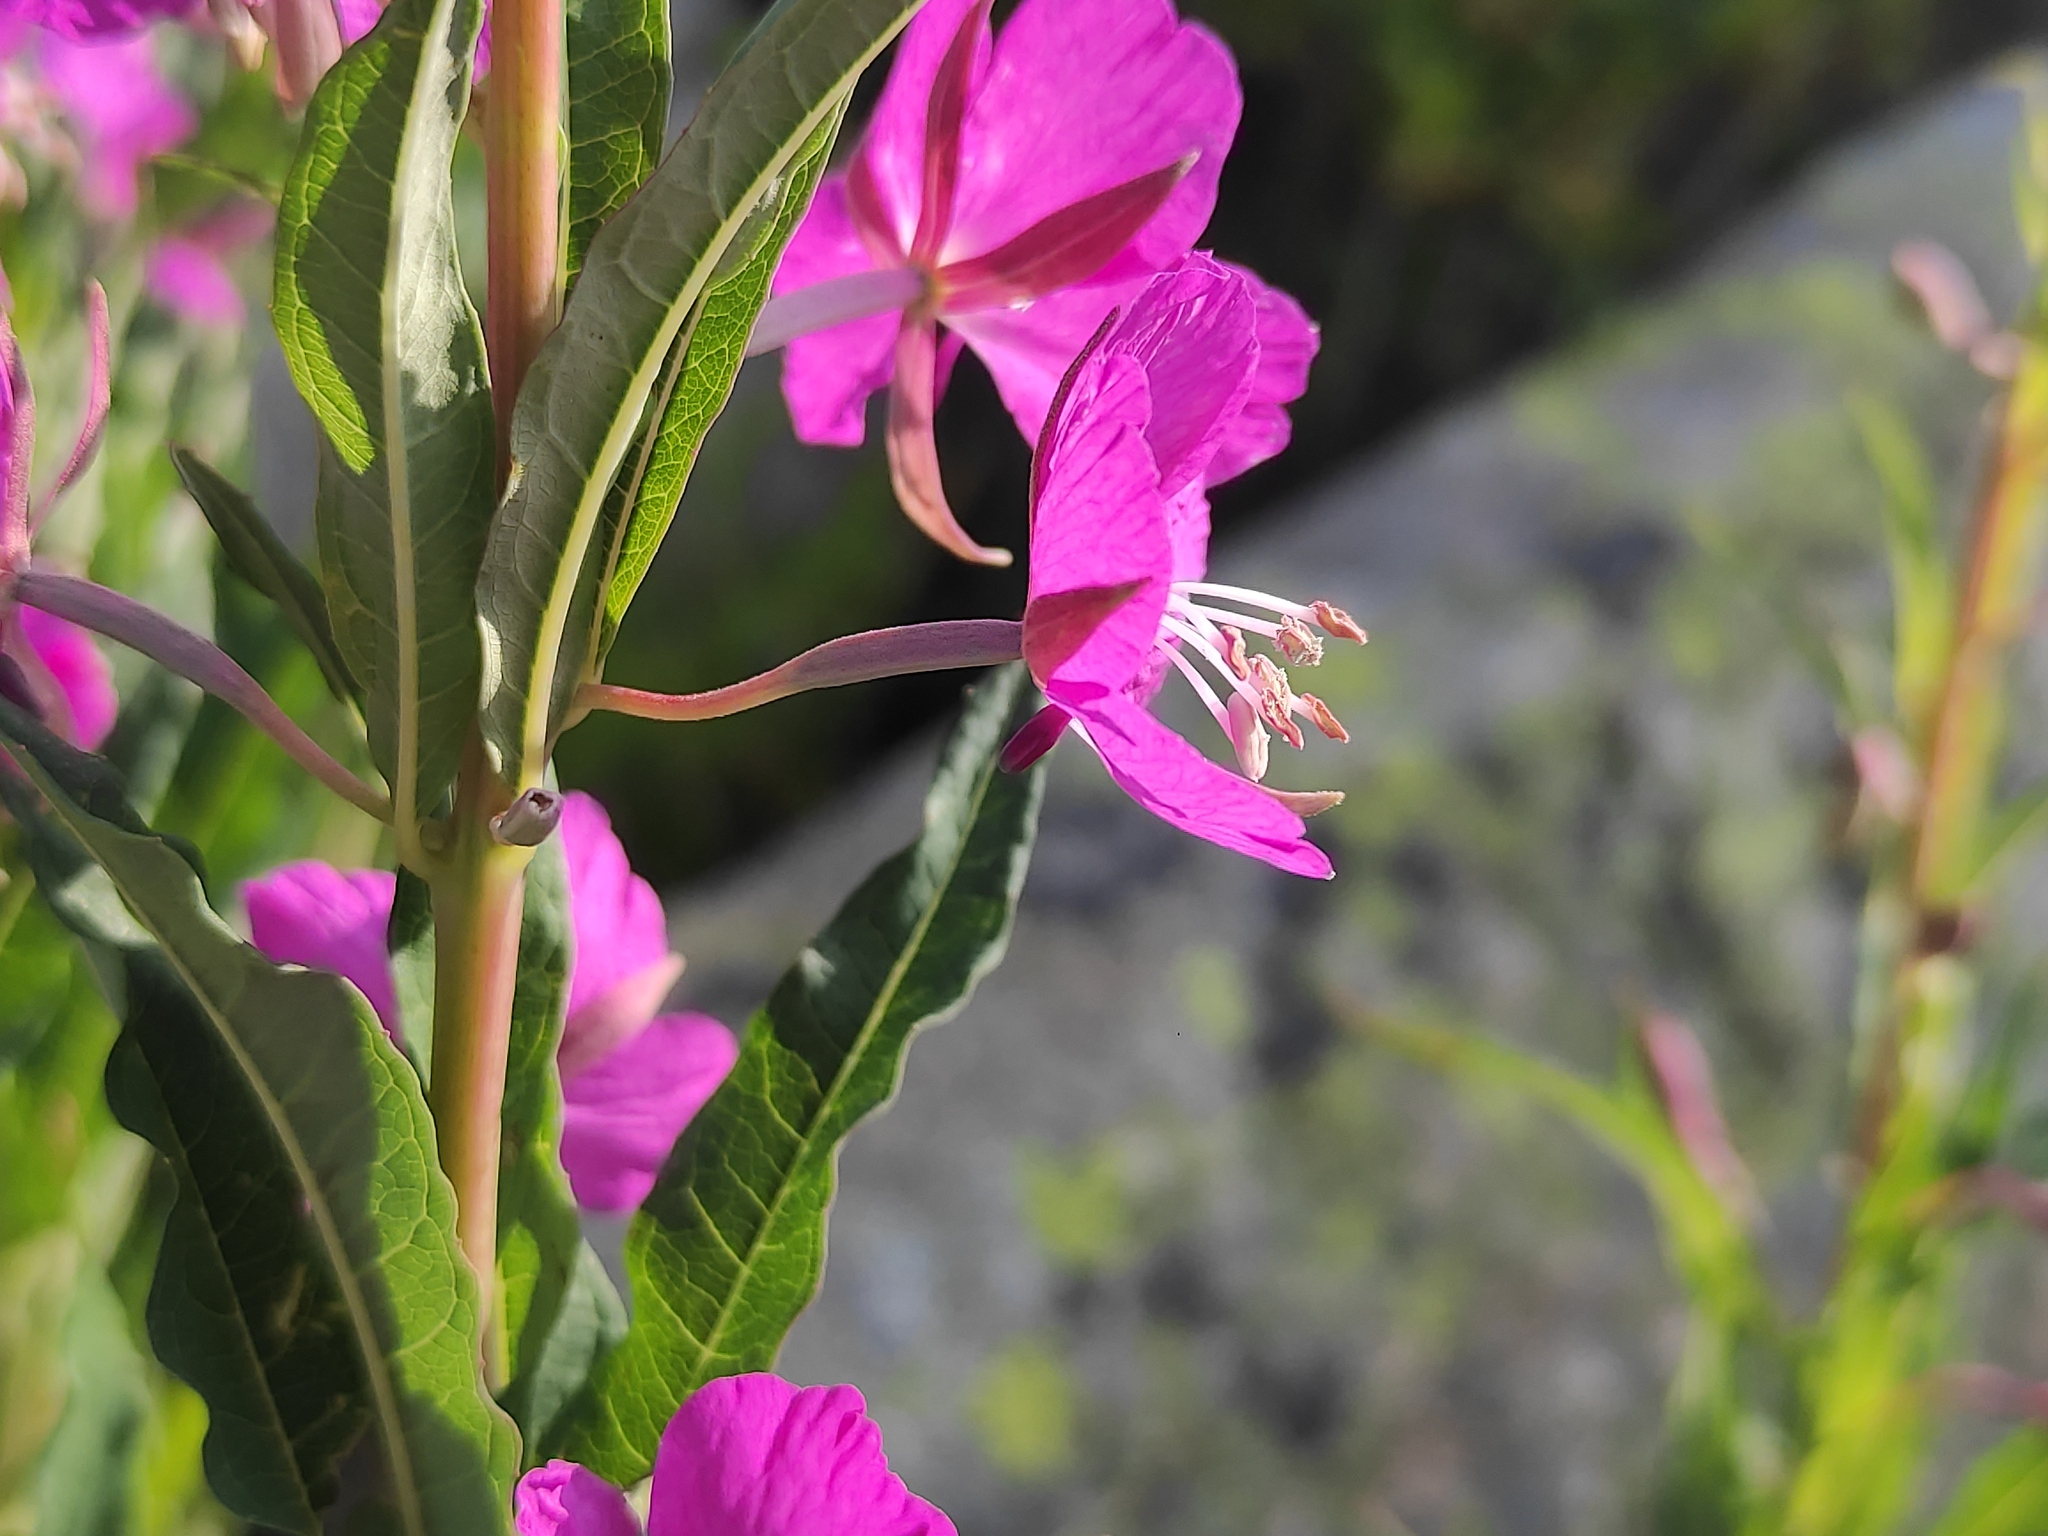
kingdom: Plantae
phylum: Tracheophyta
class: Magnoliopsida
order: Myrtales
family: Onagraceae
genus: Chamaenerion
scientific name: Chamaenerion angustifolium
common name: Fireweed
